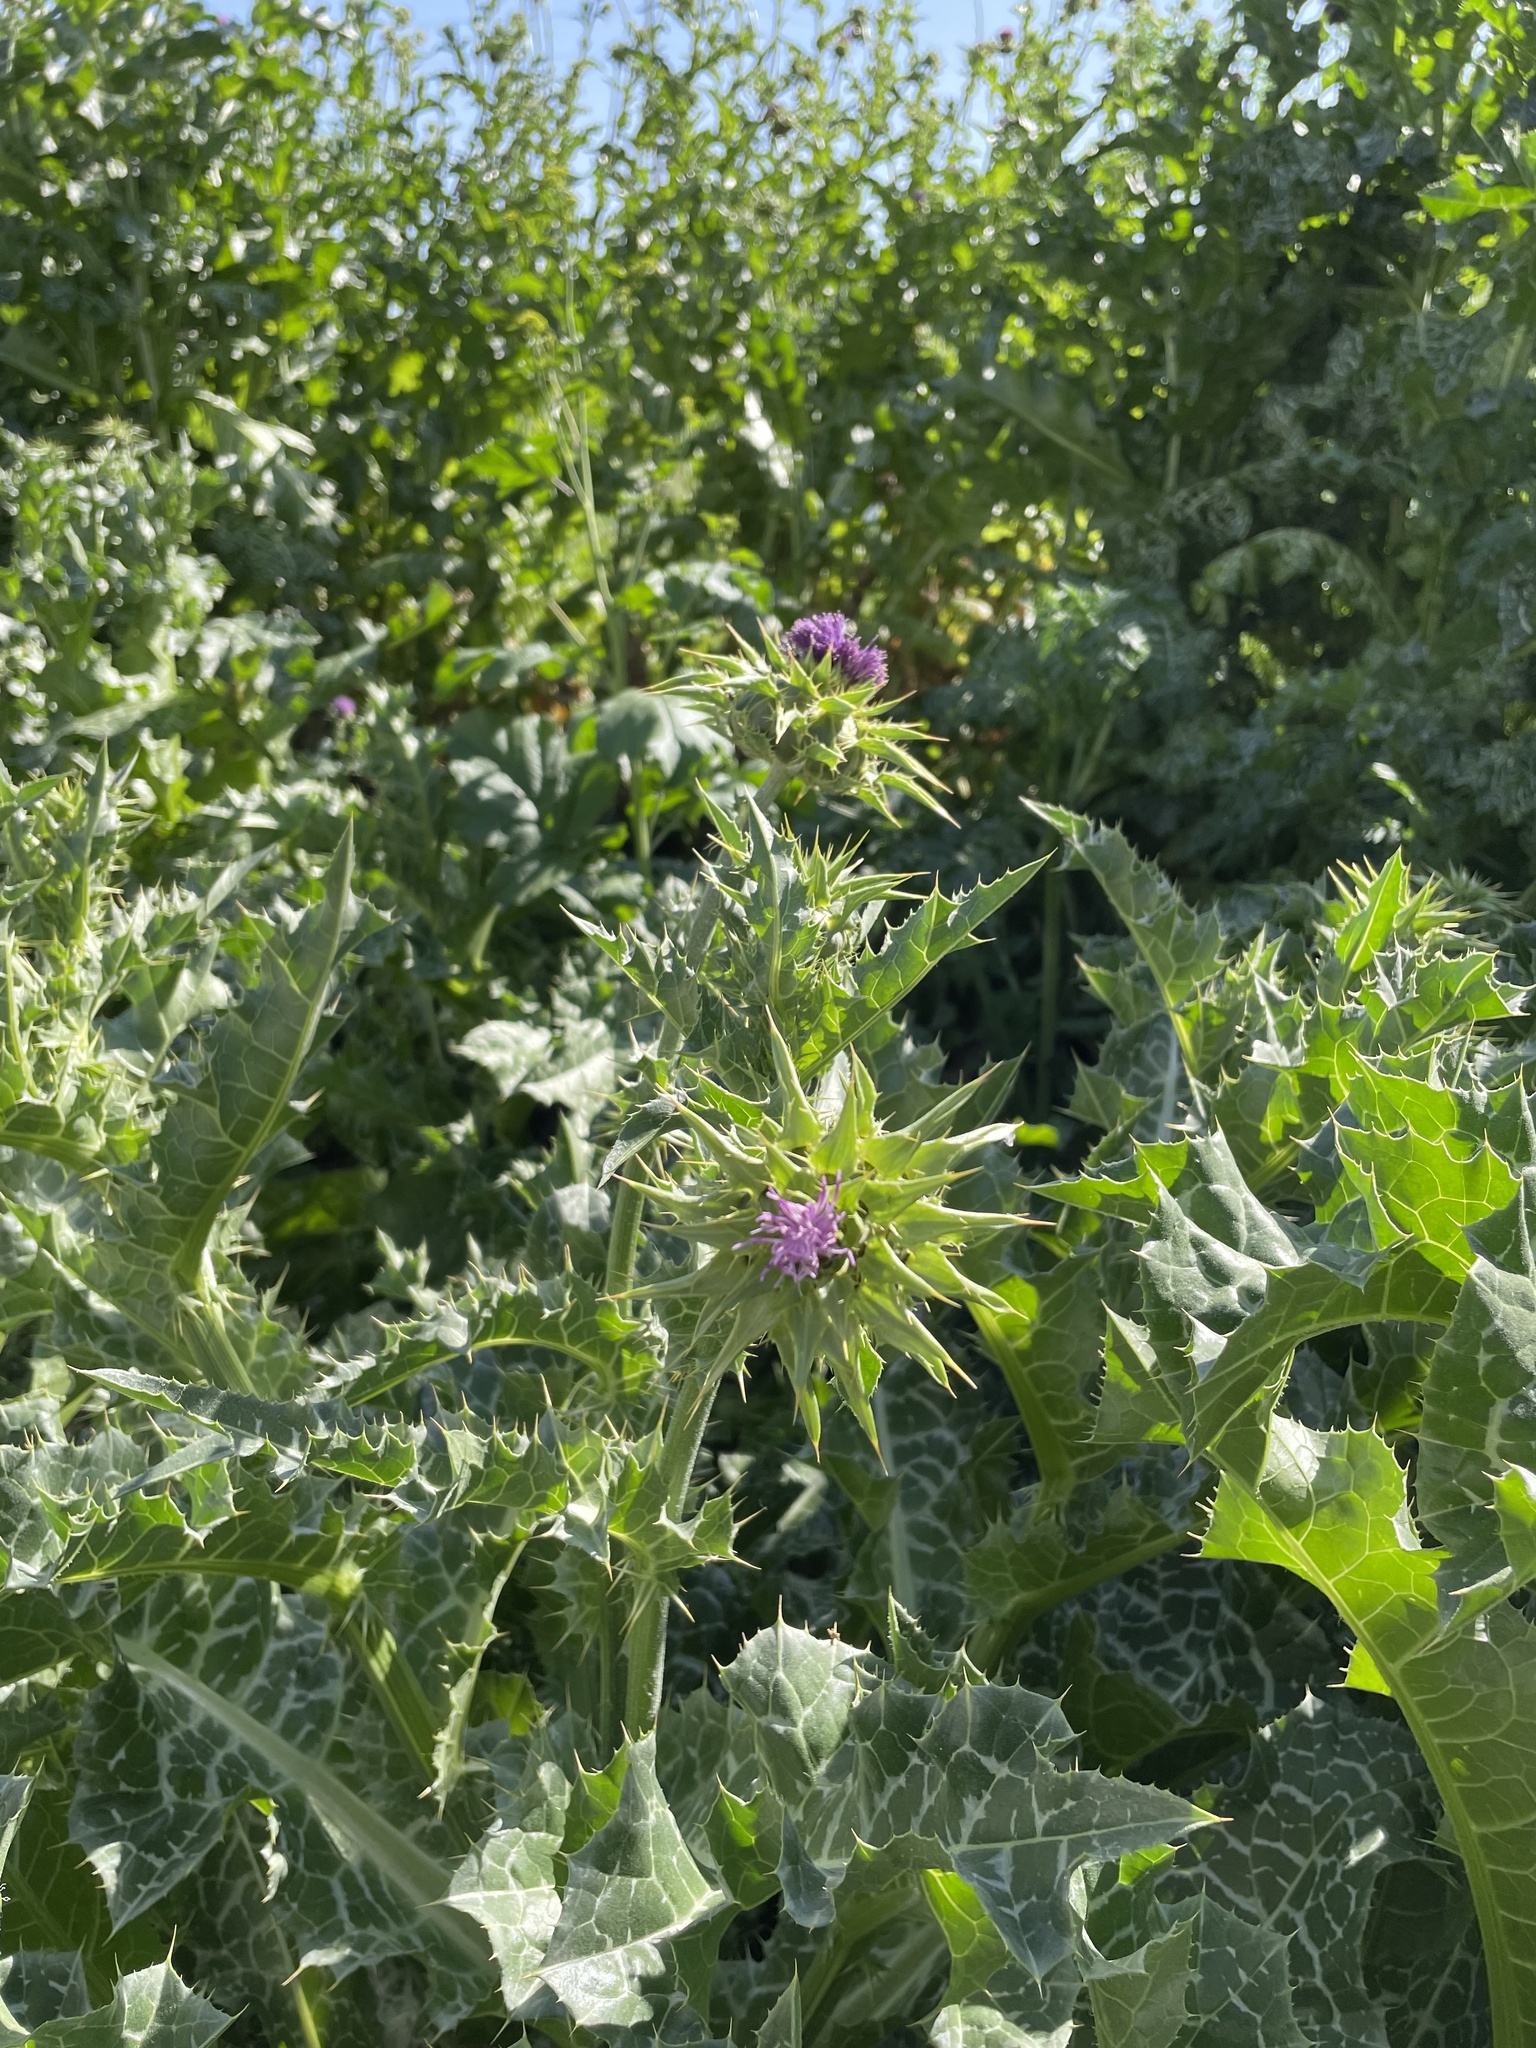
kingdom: Plantae
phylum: Tracheophyta
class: Magnoliopsida
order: Asterales
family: Asteraceae
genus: Silybum
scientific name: Silybum marianum
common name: Milk thistle
